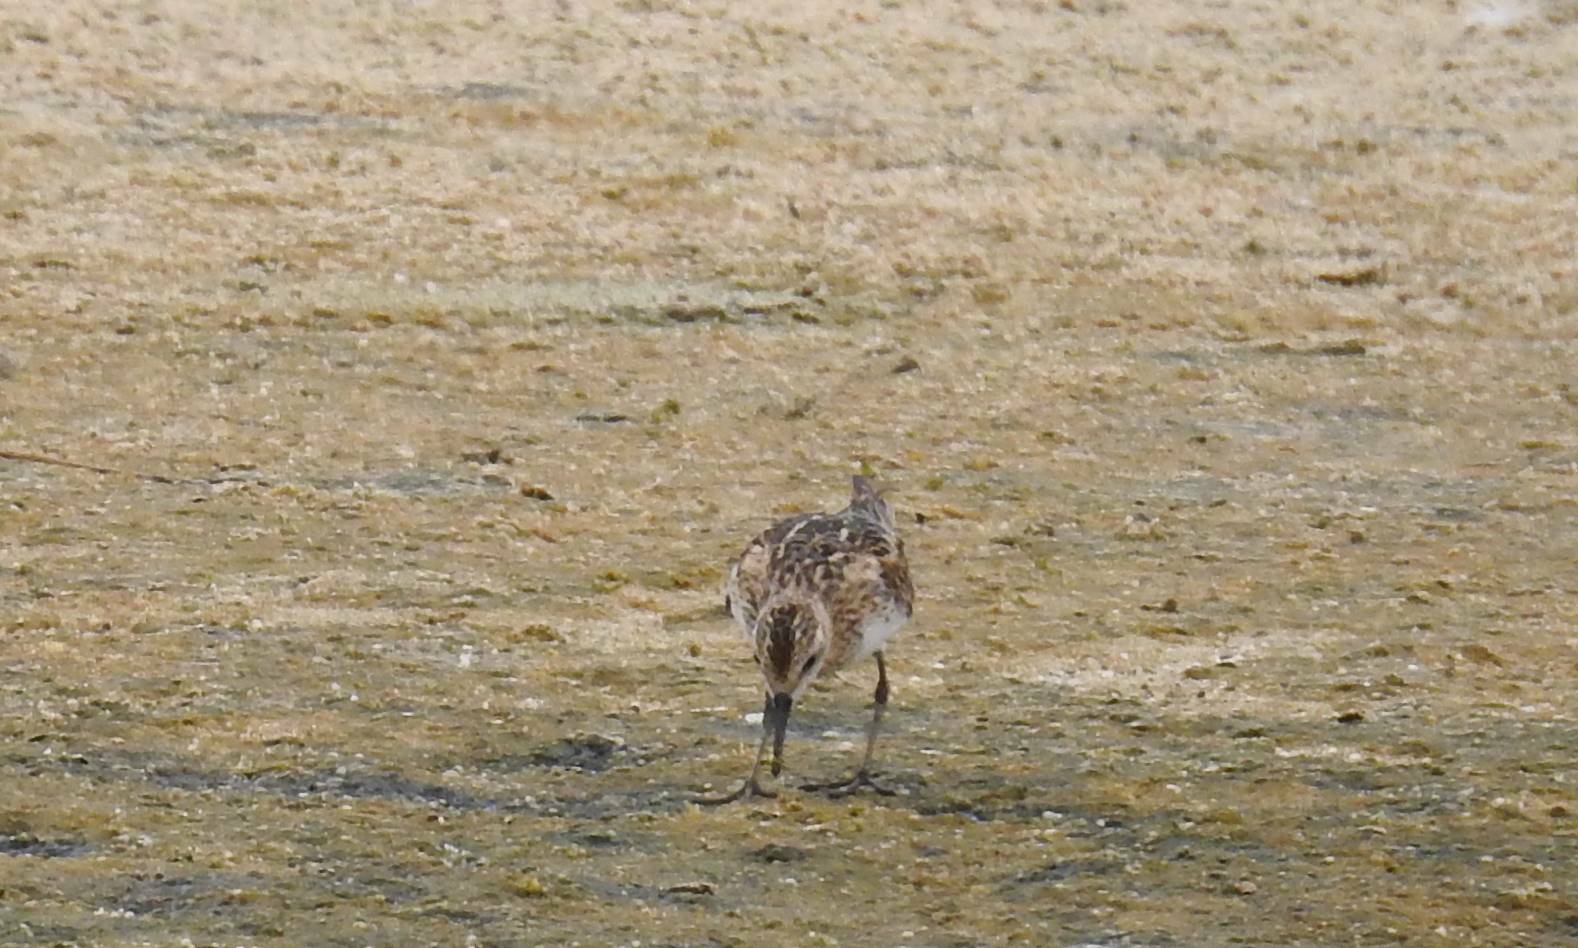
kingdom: Animalia
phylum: Chordata
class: Aves
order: Charadriiformes
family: Scolopacidae
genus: Calidris
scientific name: Calidris minuta
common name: Little stint
